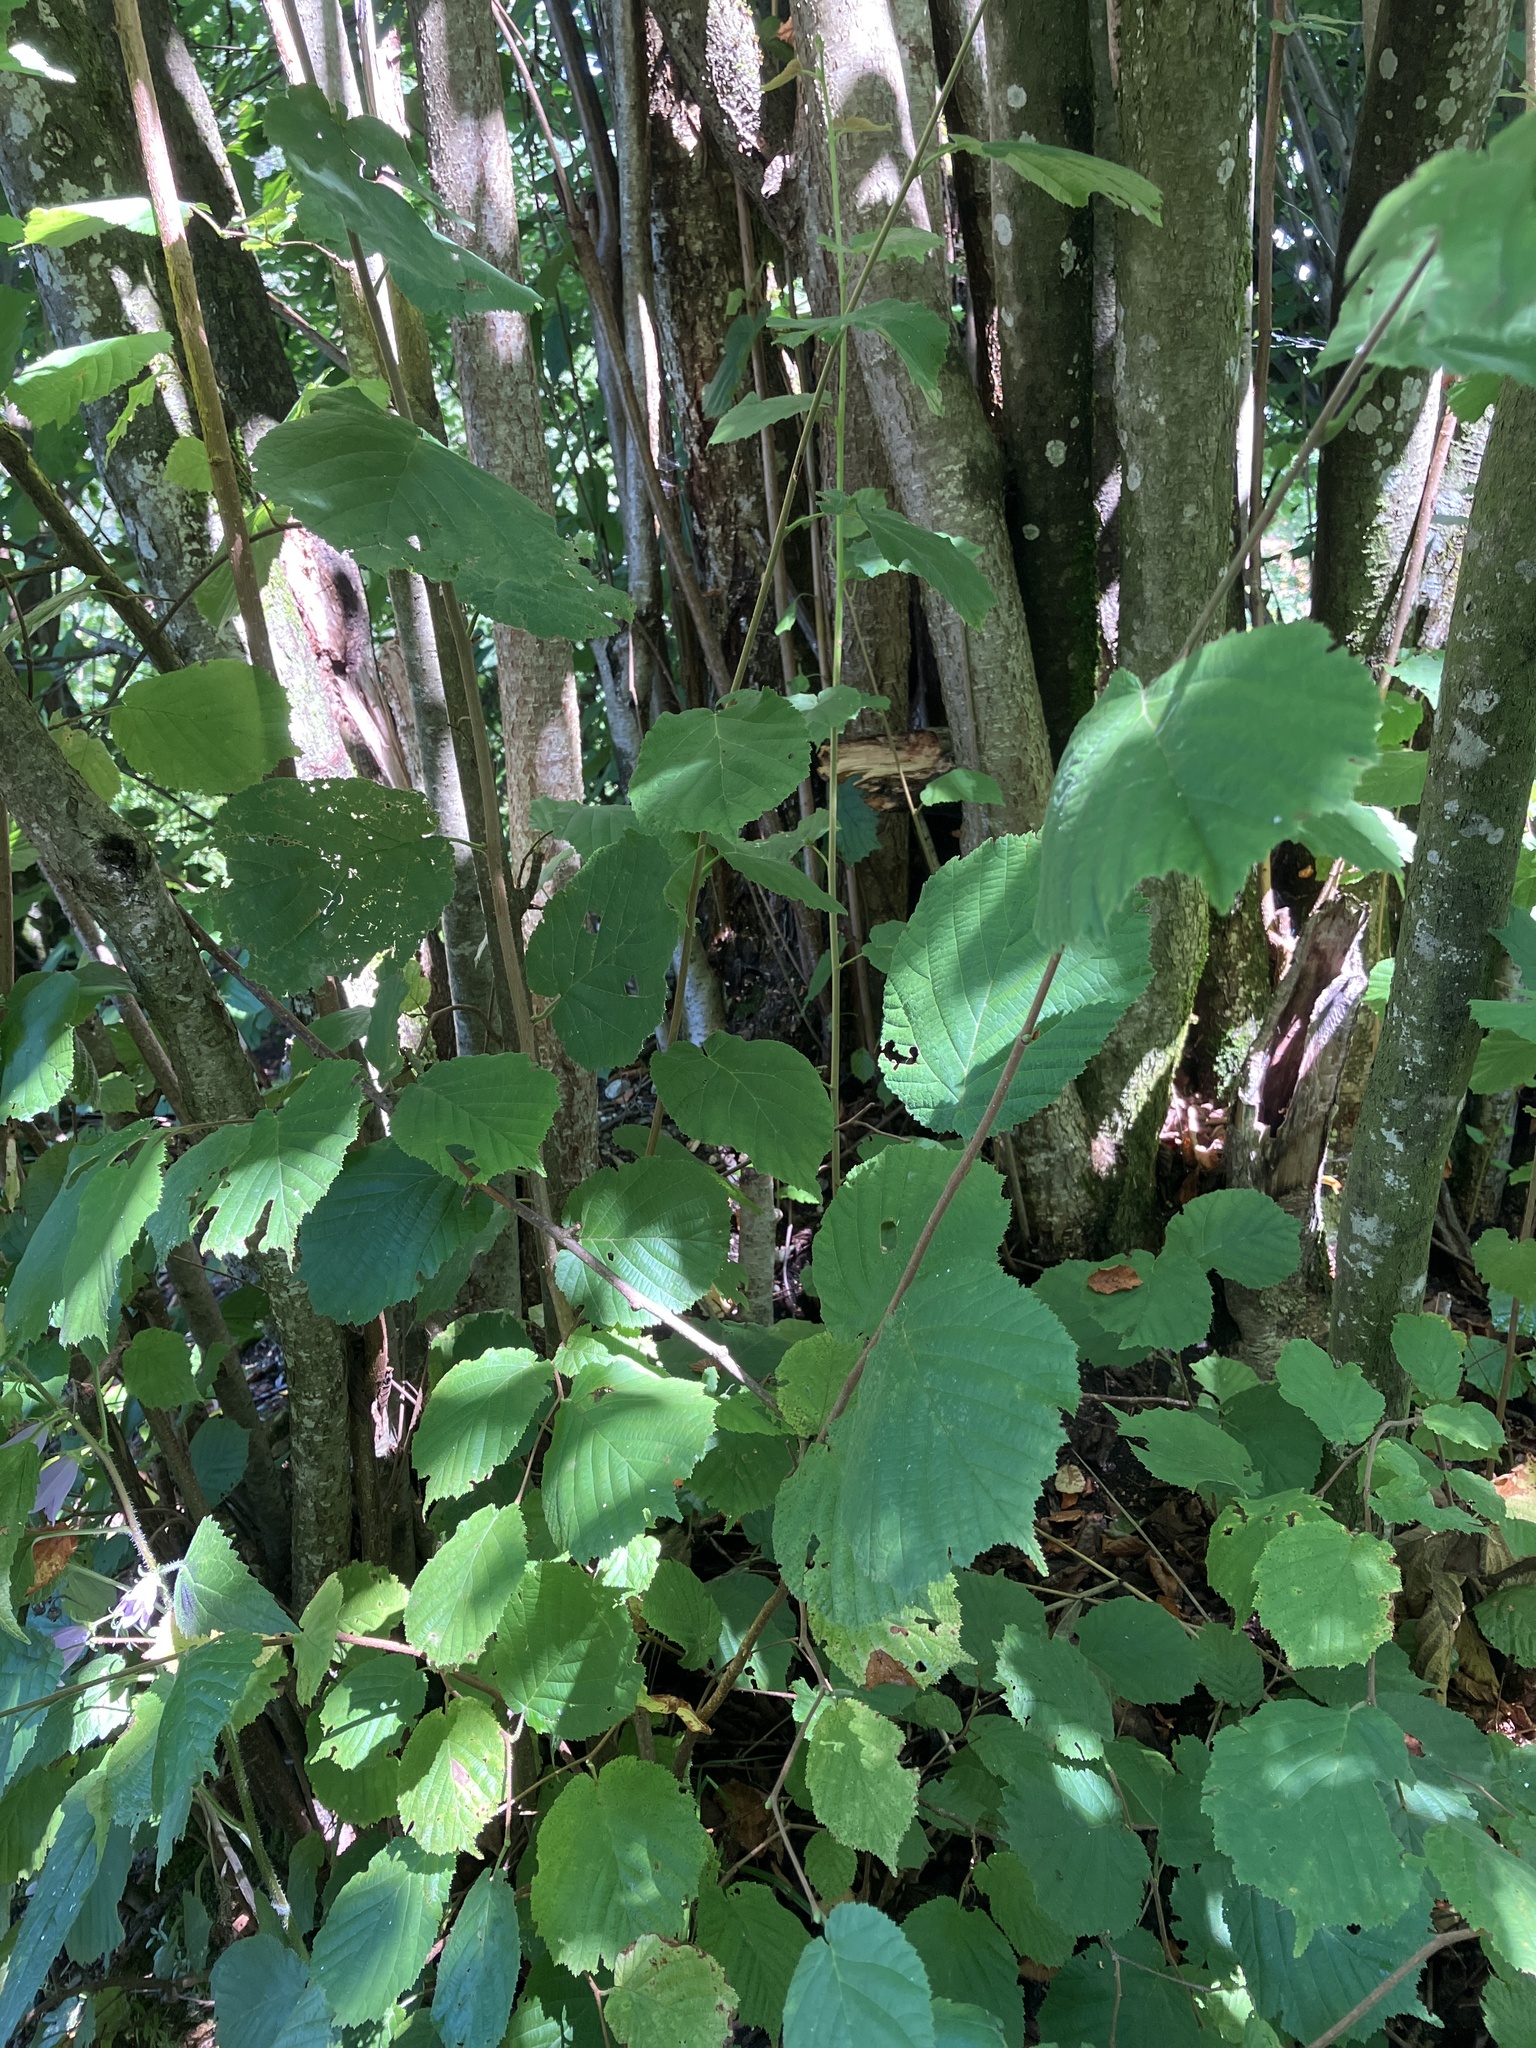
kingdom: Plantae
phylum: Tracheophyta
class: Magnoliopsida
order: Fagales
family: Betulaceae
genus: Corylus
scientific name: Corylus avellana
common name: European hazel
